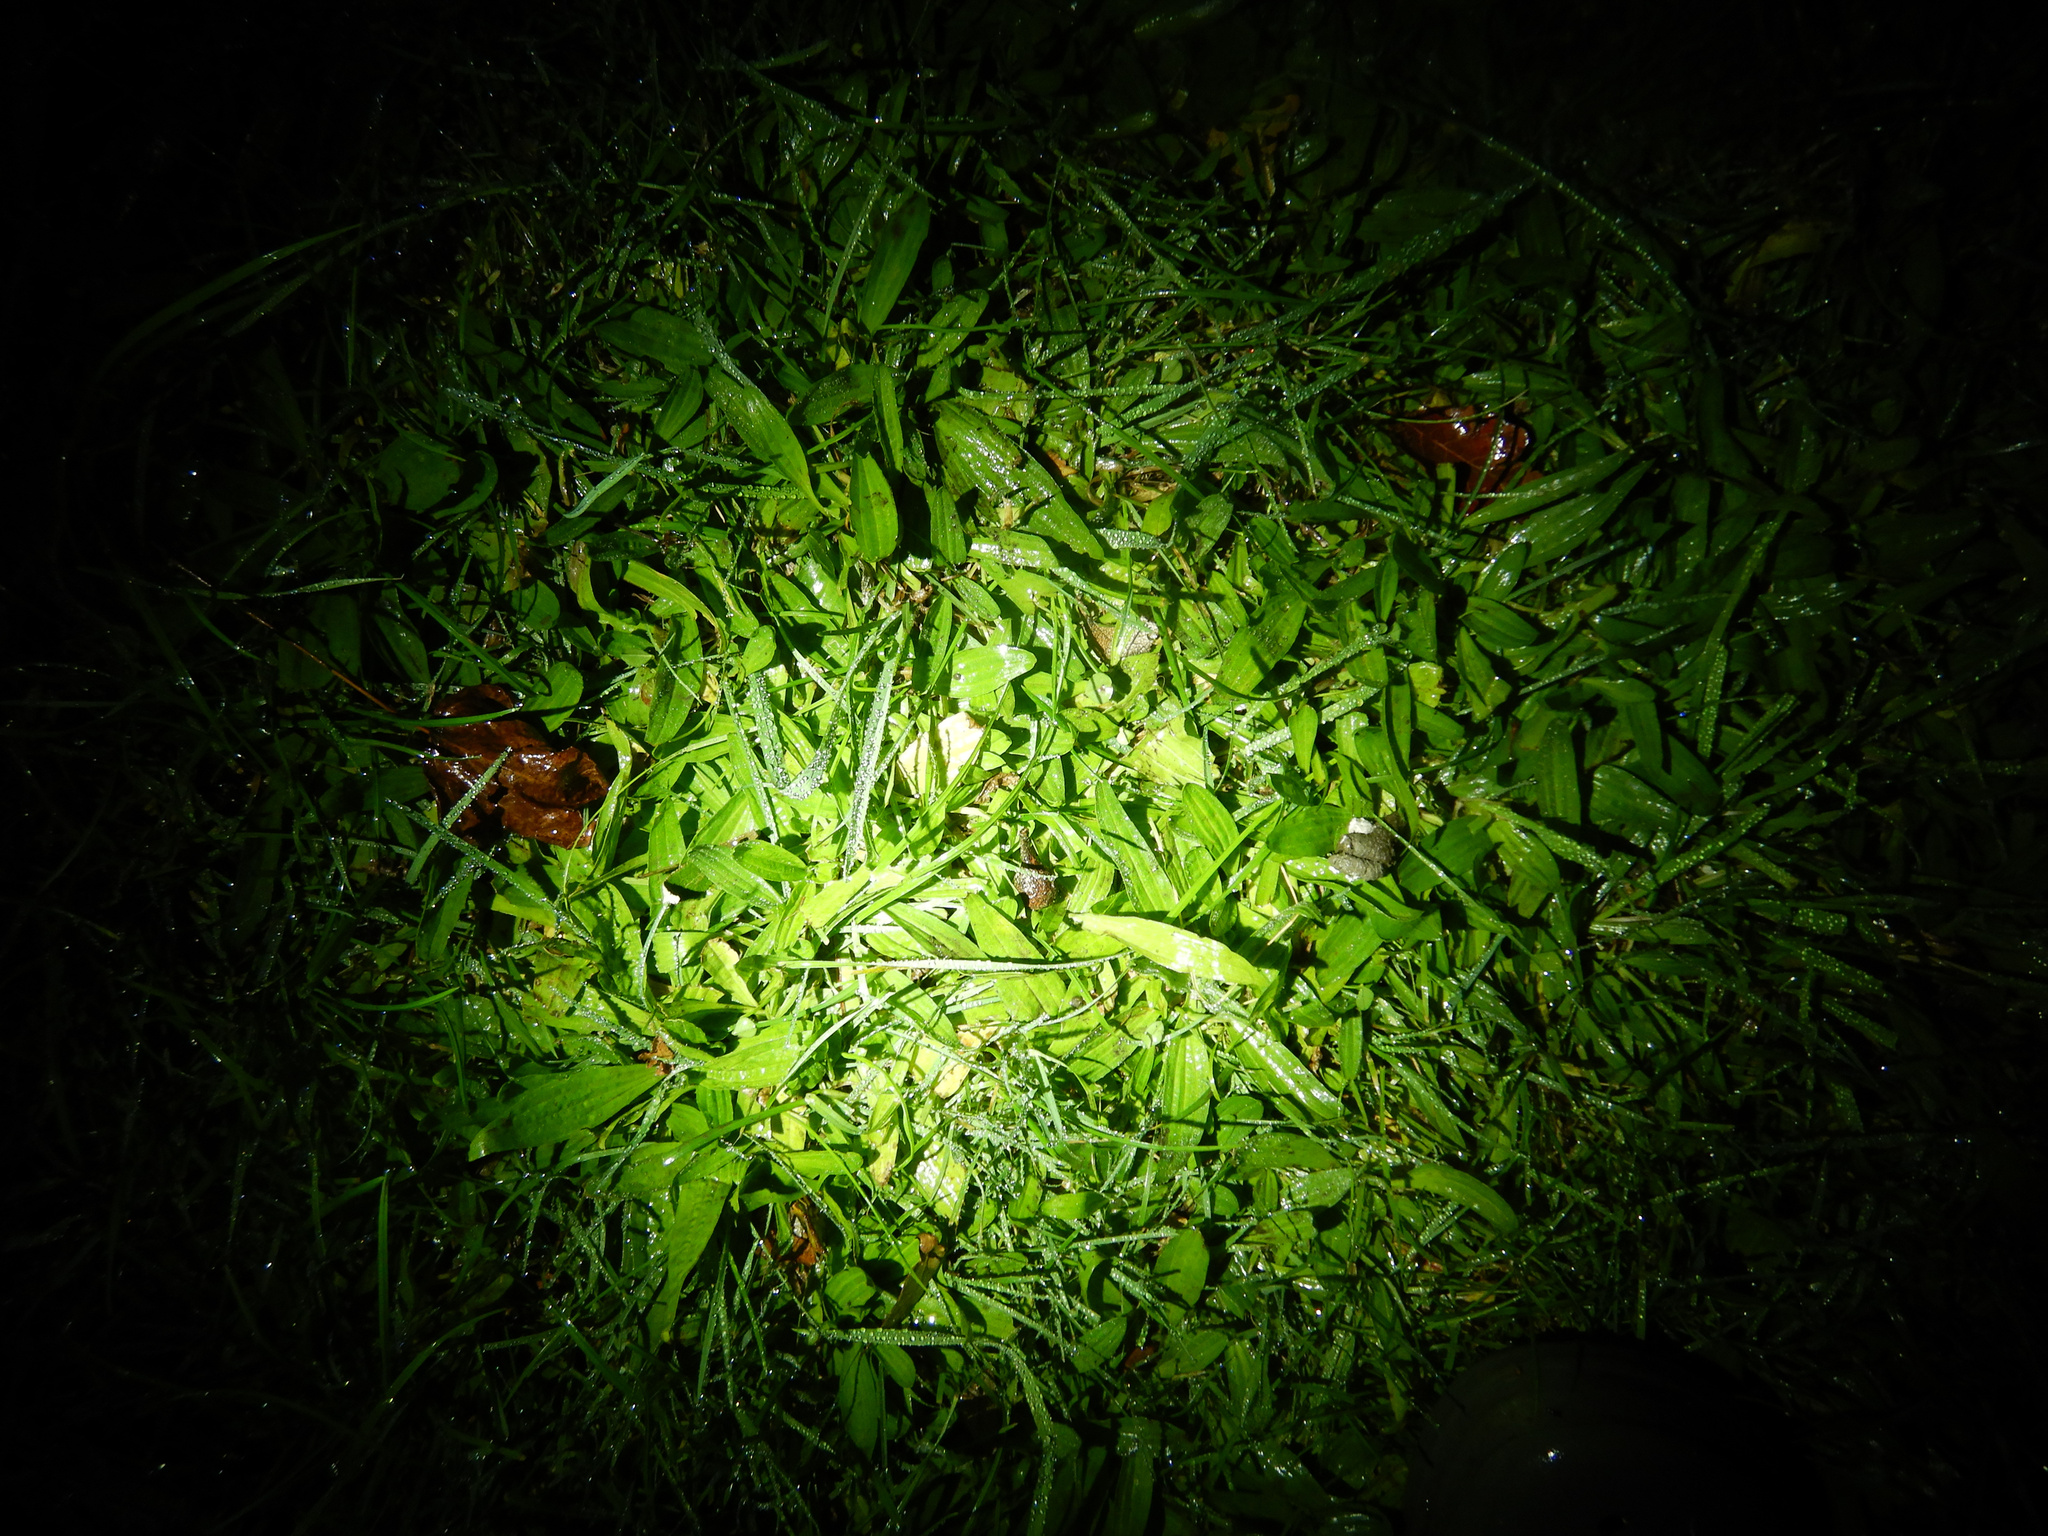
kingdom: Plantae
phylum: Tracheophyta
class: Magnoliopsida
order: Lamiales
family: Plantaginaceae
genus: Plantago
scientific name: Plantago lanceolata
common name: Ribwort plantain
